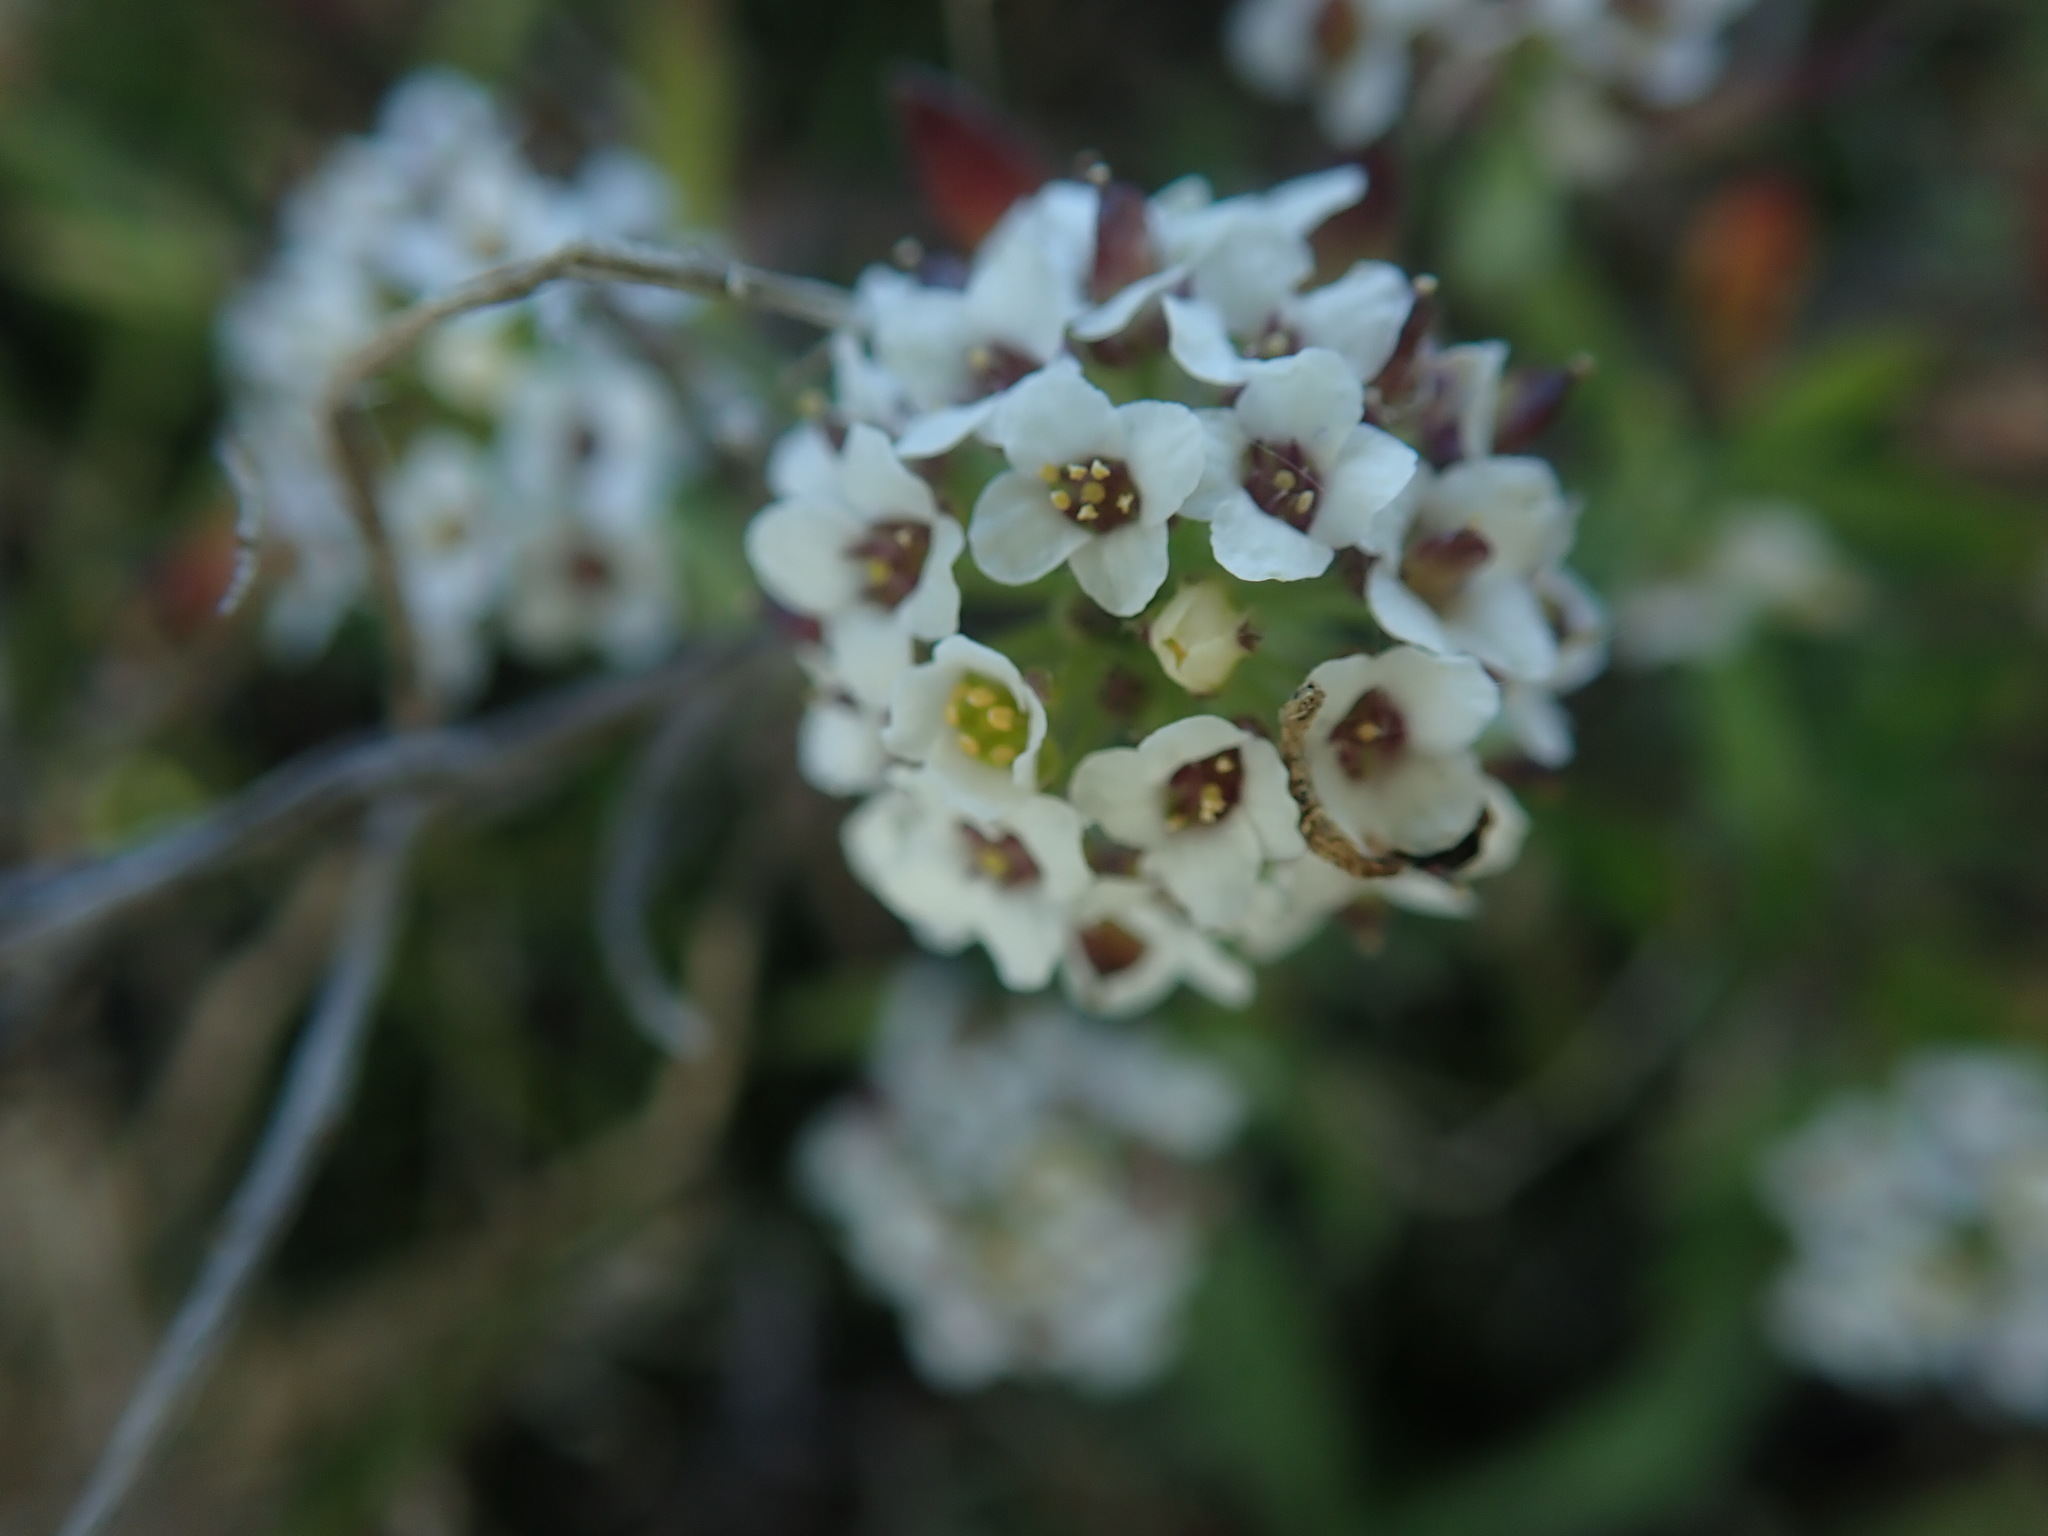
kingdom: Plantae
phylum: Tracheophyta
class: Magnoliopsida
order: Brassicales
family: Brassicaceae
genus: Lobularia
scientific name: Lobularia maritima
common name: Sweet alison
